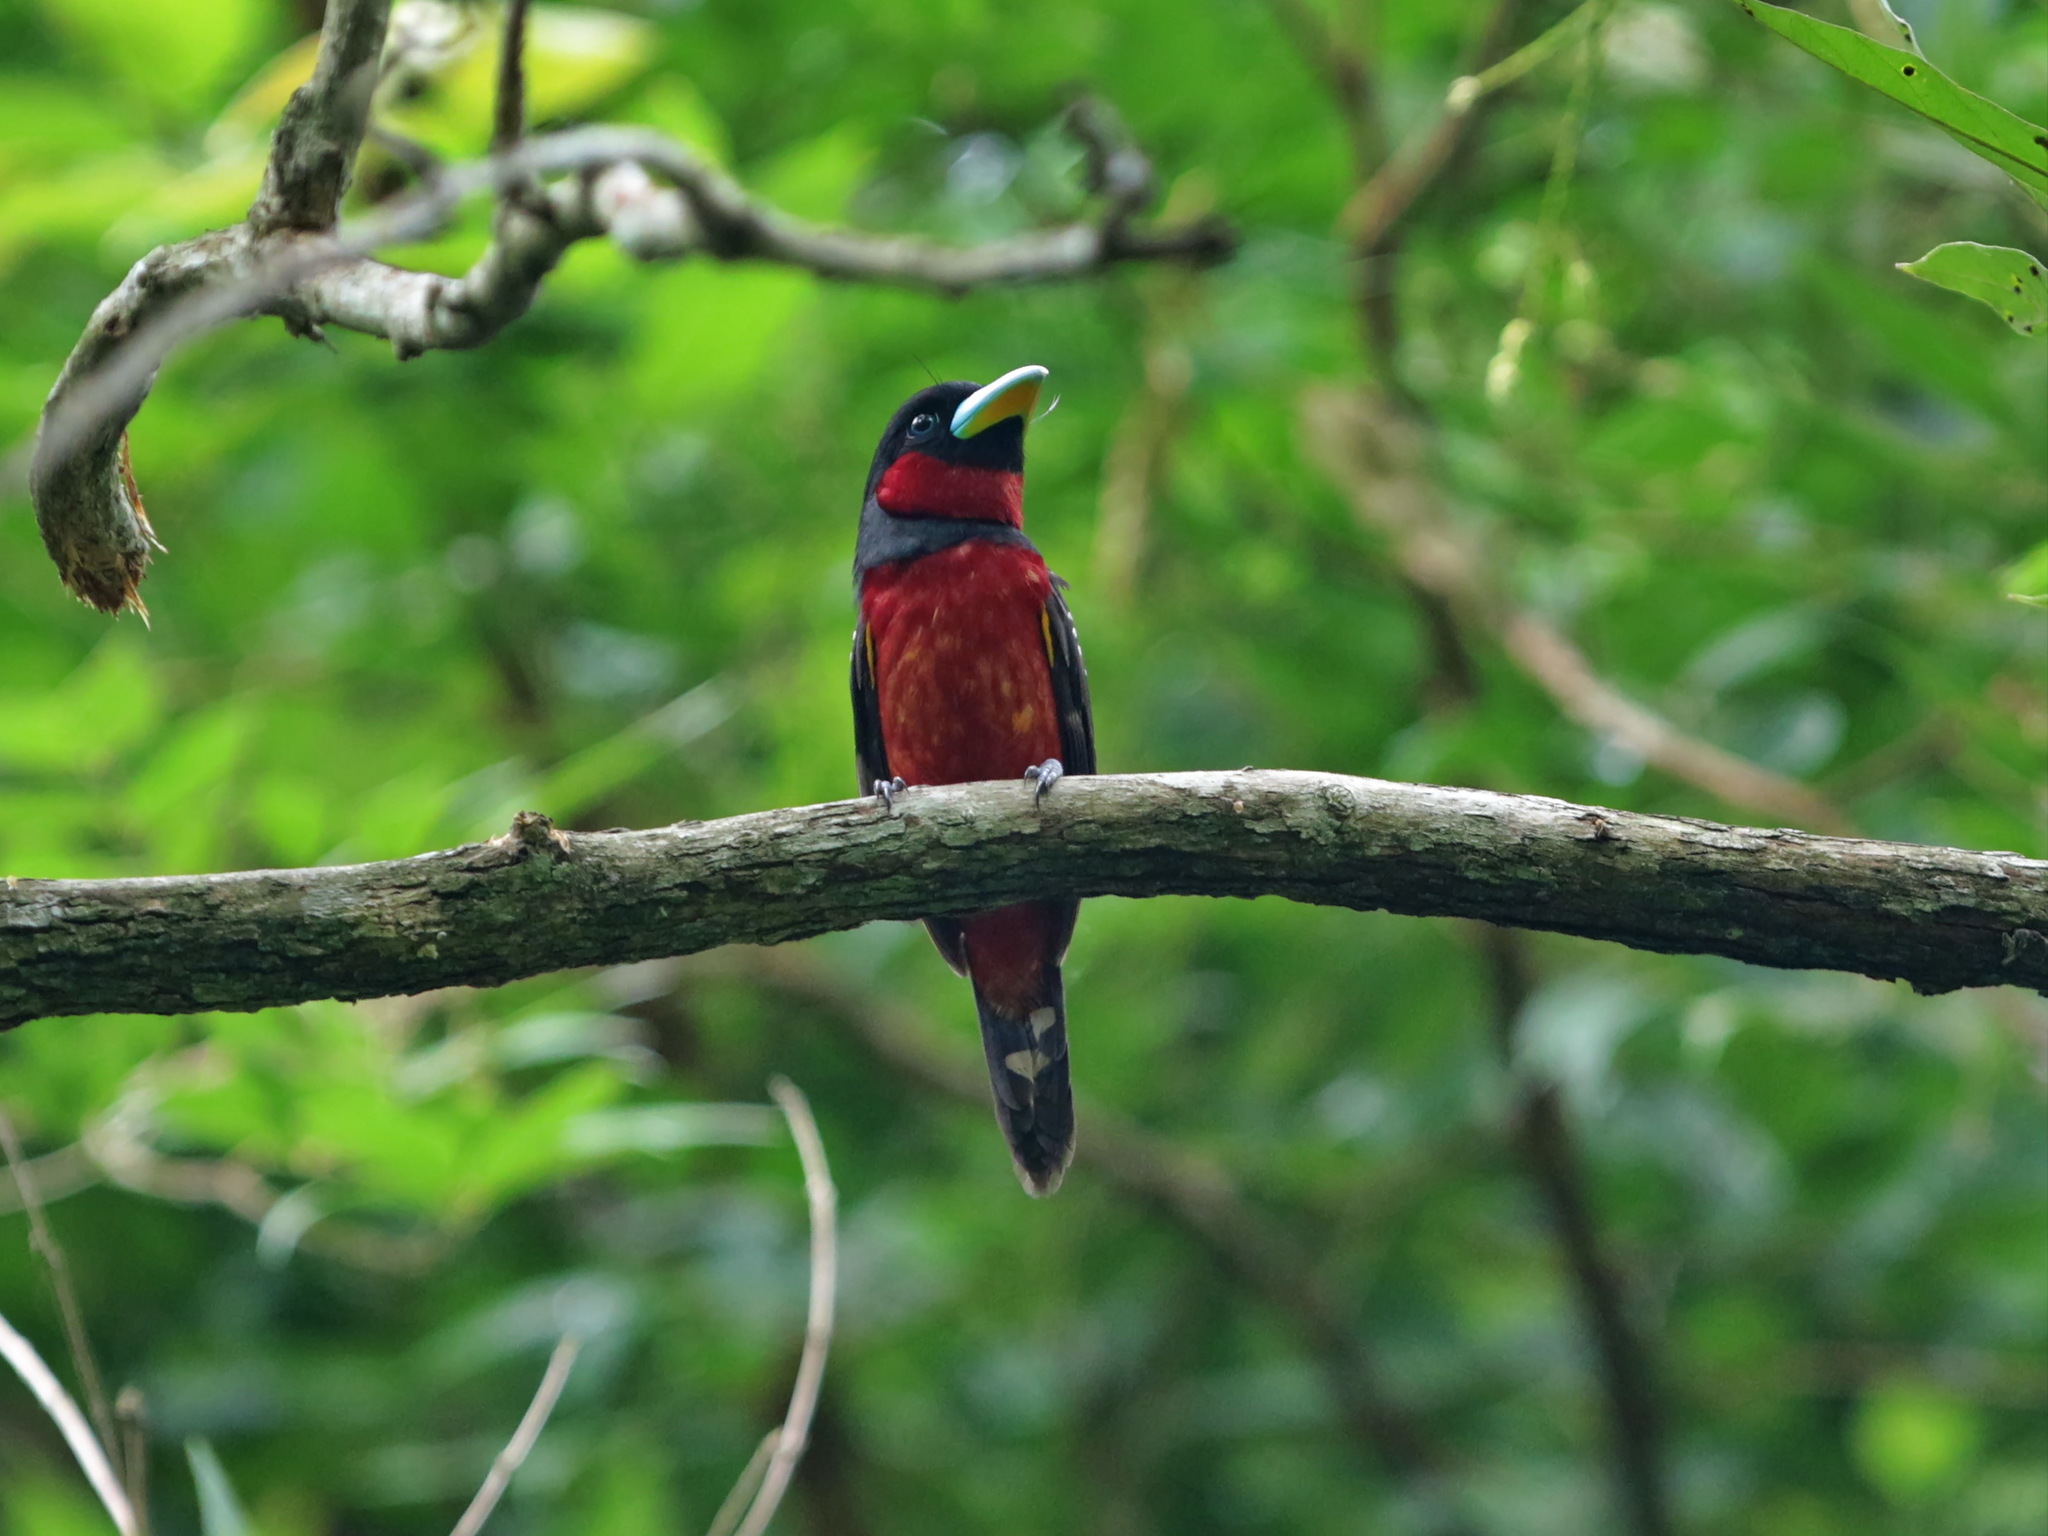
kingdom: Animalia
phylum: Chordata
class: Aves
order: Passeriformes
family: Eurylaimidae
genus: Cymbirhynchus
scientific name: Cymbirhynchus macrorhynchos
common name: Black-and-red broadbill
